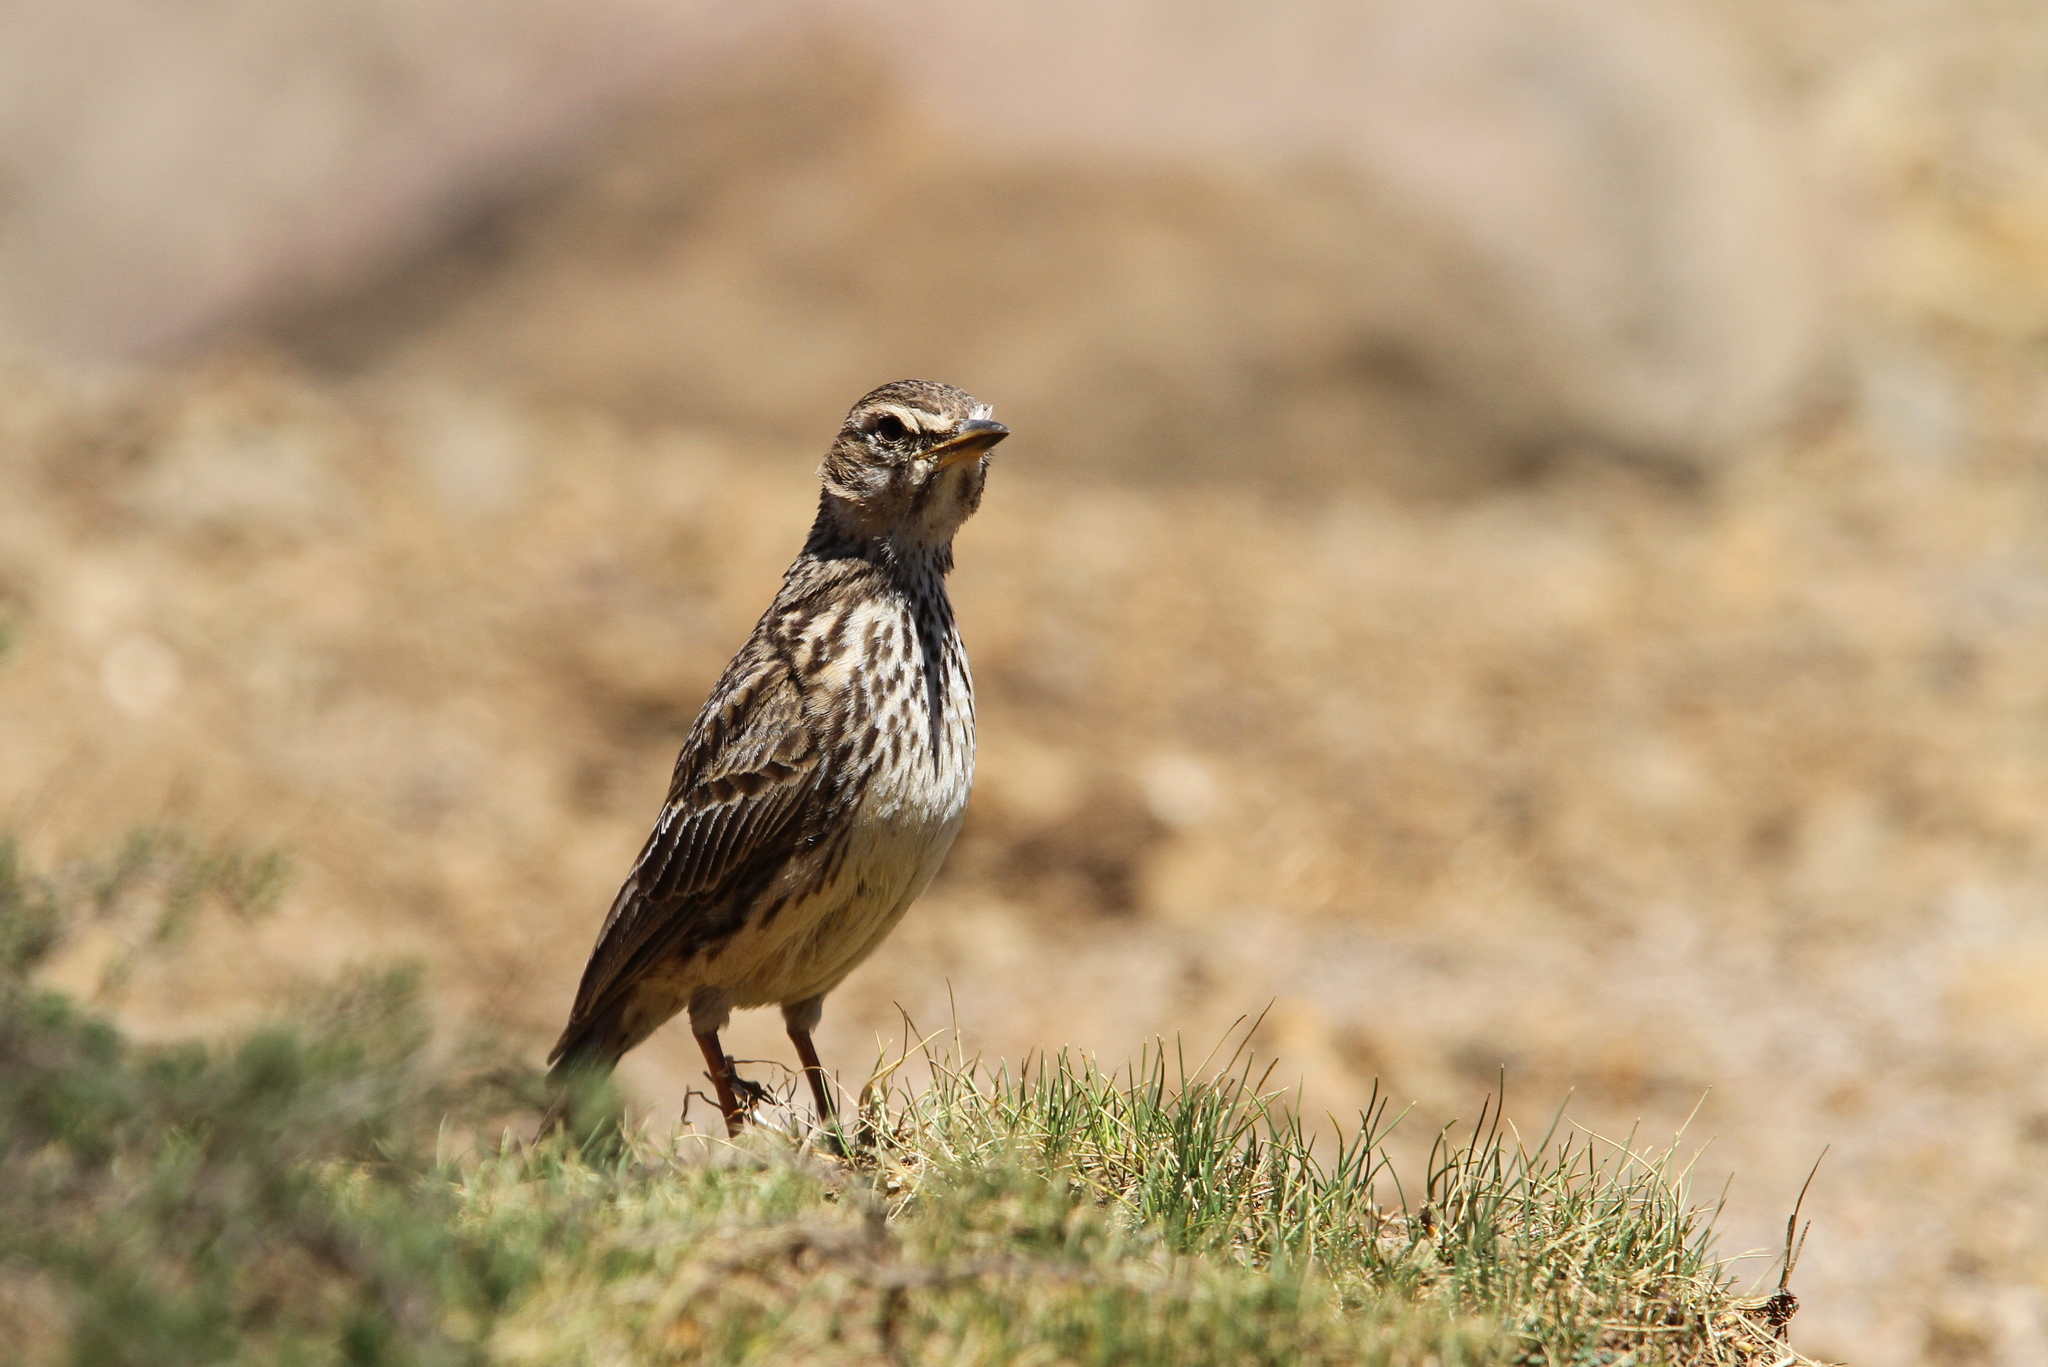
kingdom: Animalia
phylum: Chordata
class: Aves
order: Passeriformes
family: Alaudidae
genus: Galerida
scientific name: Galerida magnirostris
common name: Large-billed lark
